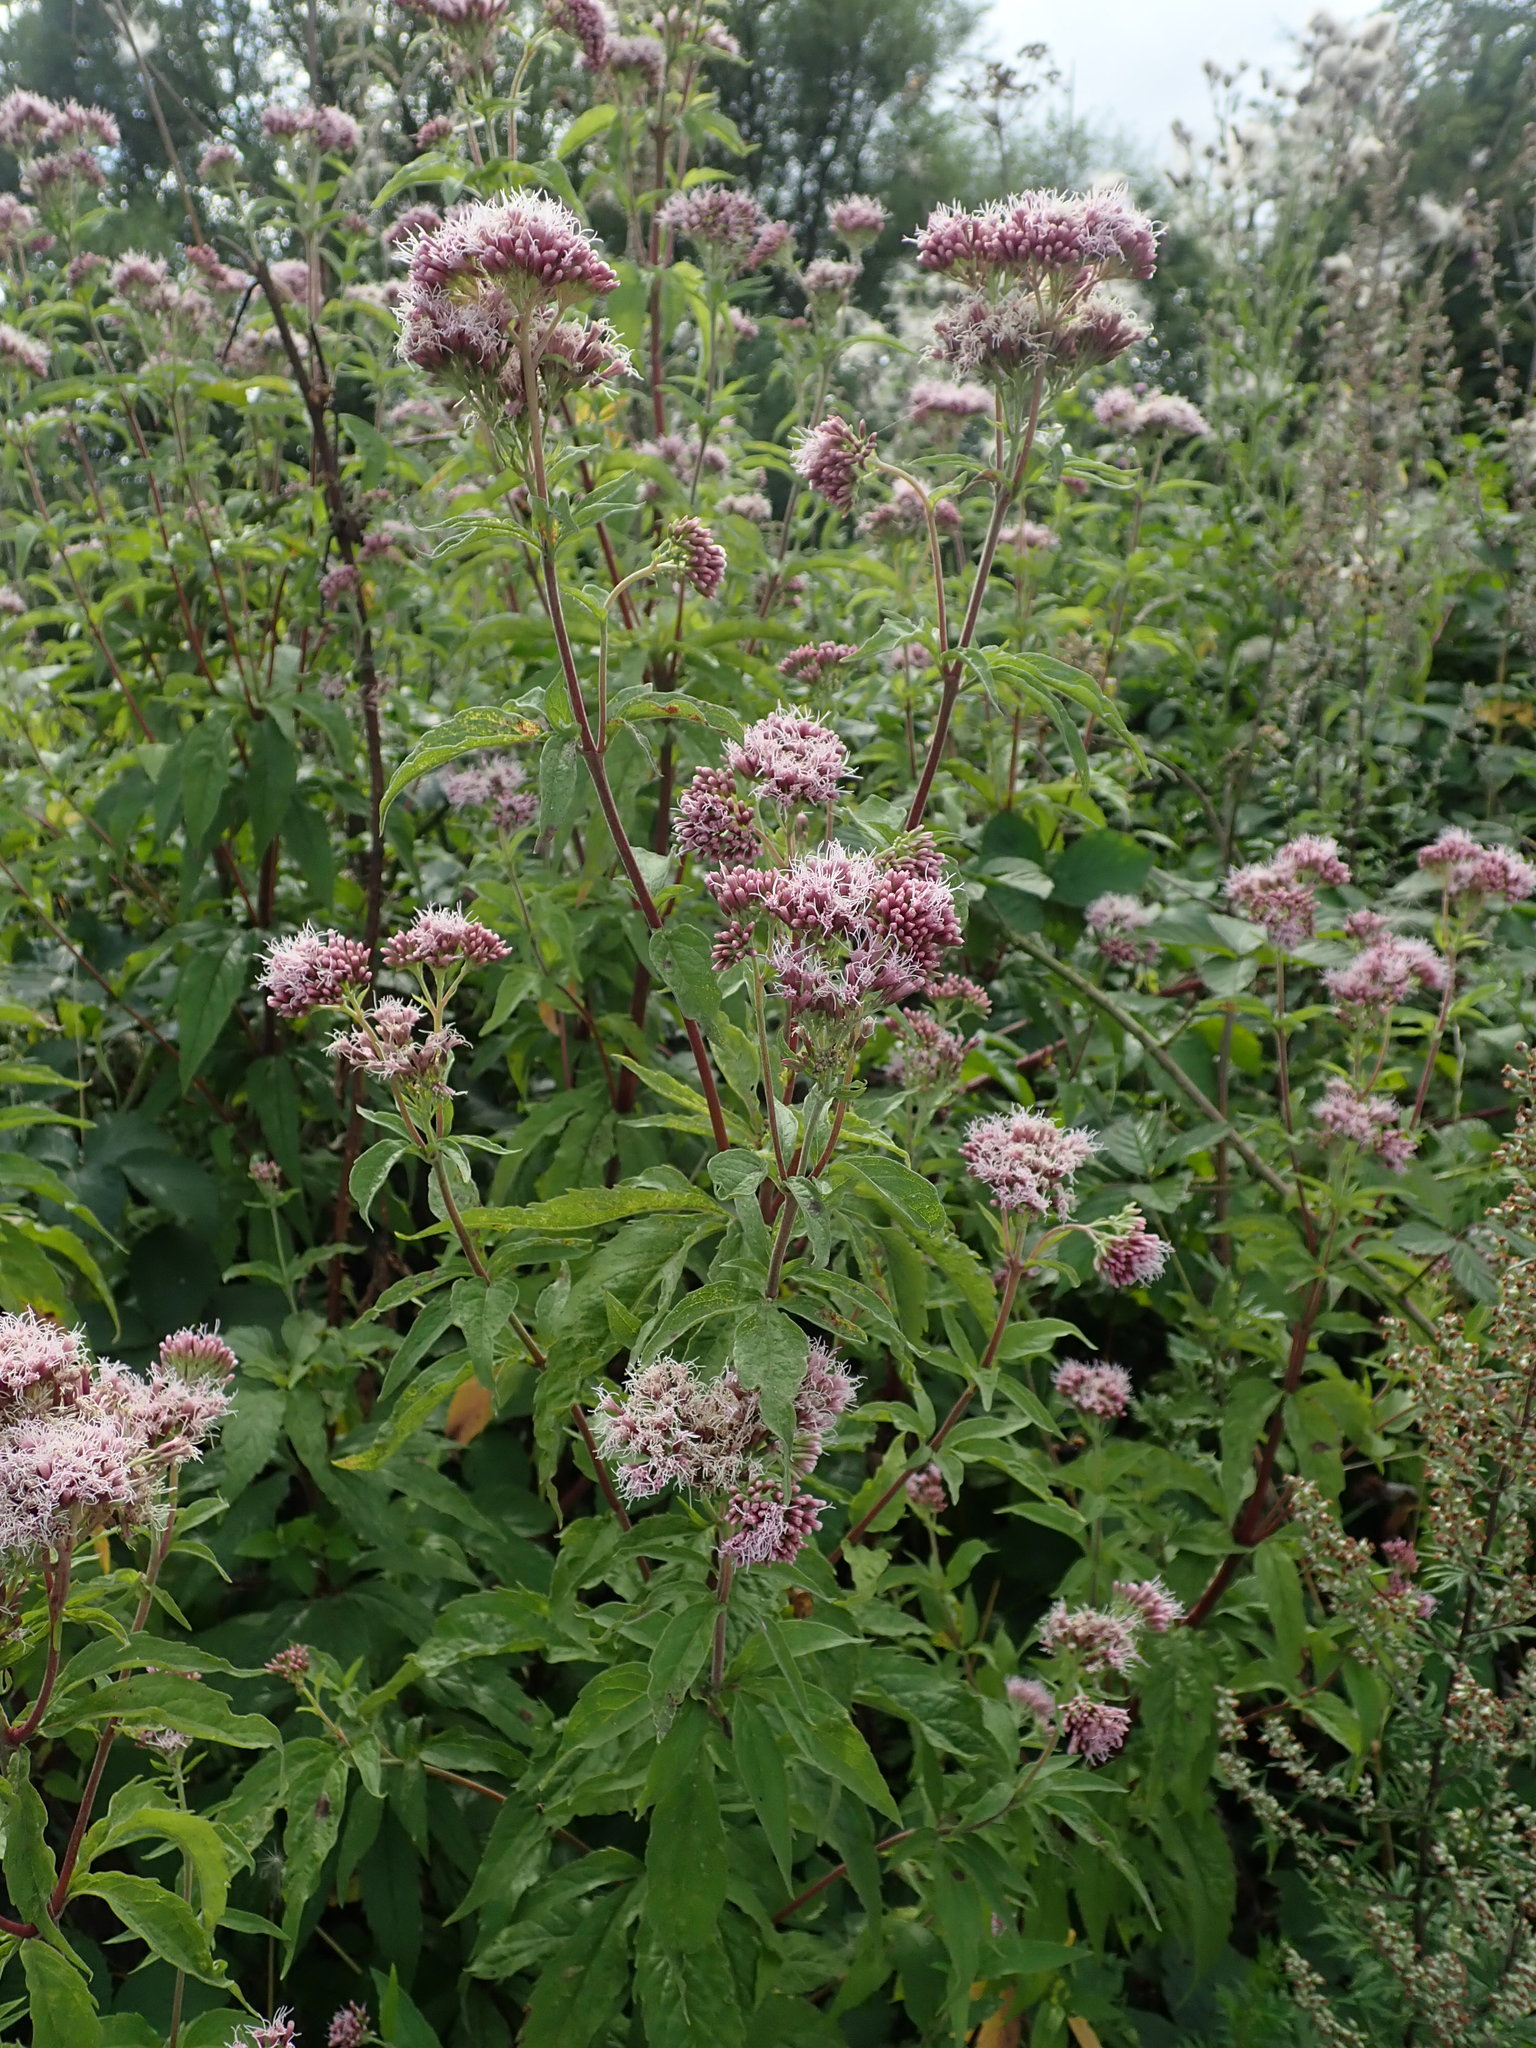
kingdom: Plantae
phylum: Tracheophyta
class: Magnoliopsida
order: Asterales
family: Asteraceae
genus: Eupatorium
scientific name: Eupatorium cannabinum
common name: Hemp-agrimony
